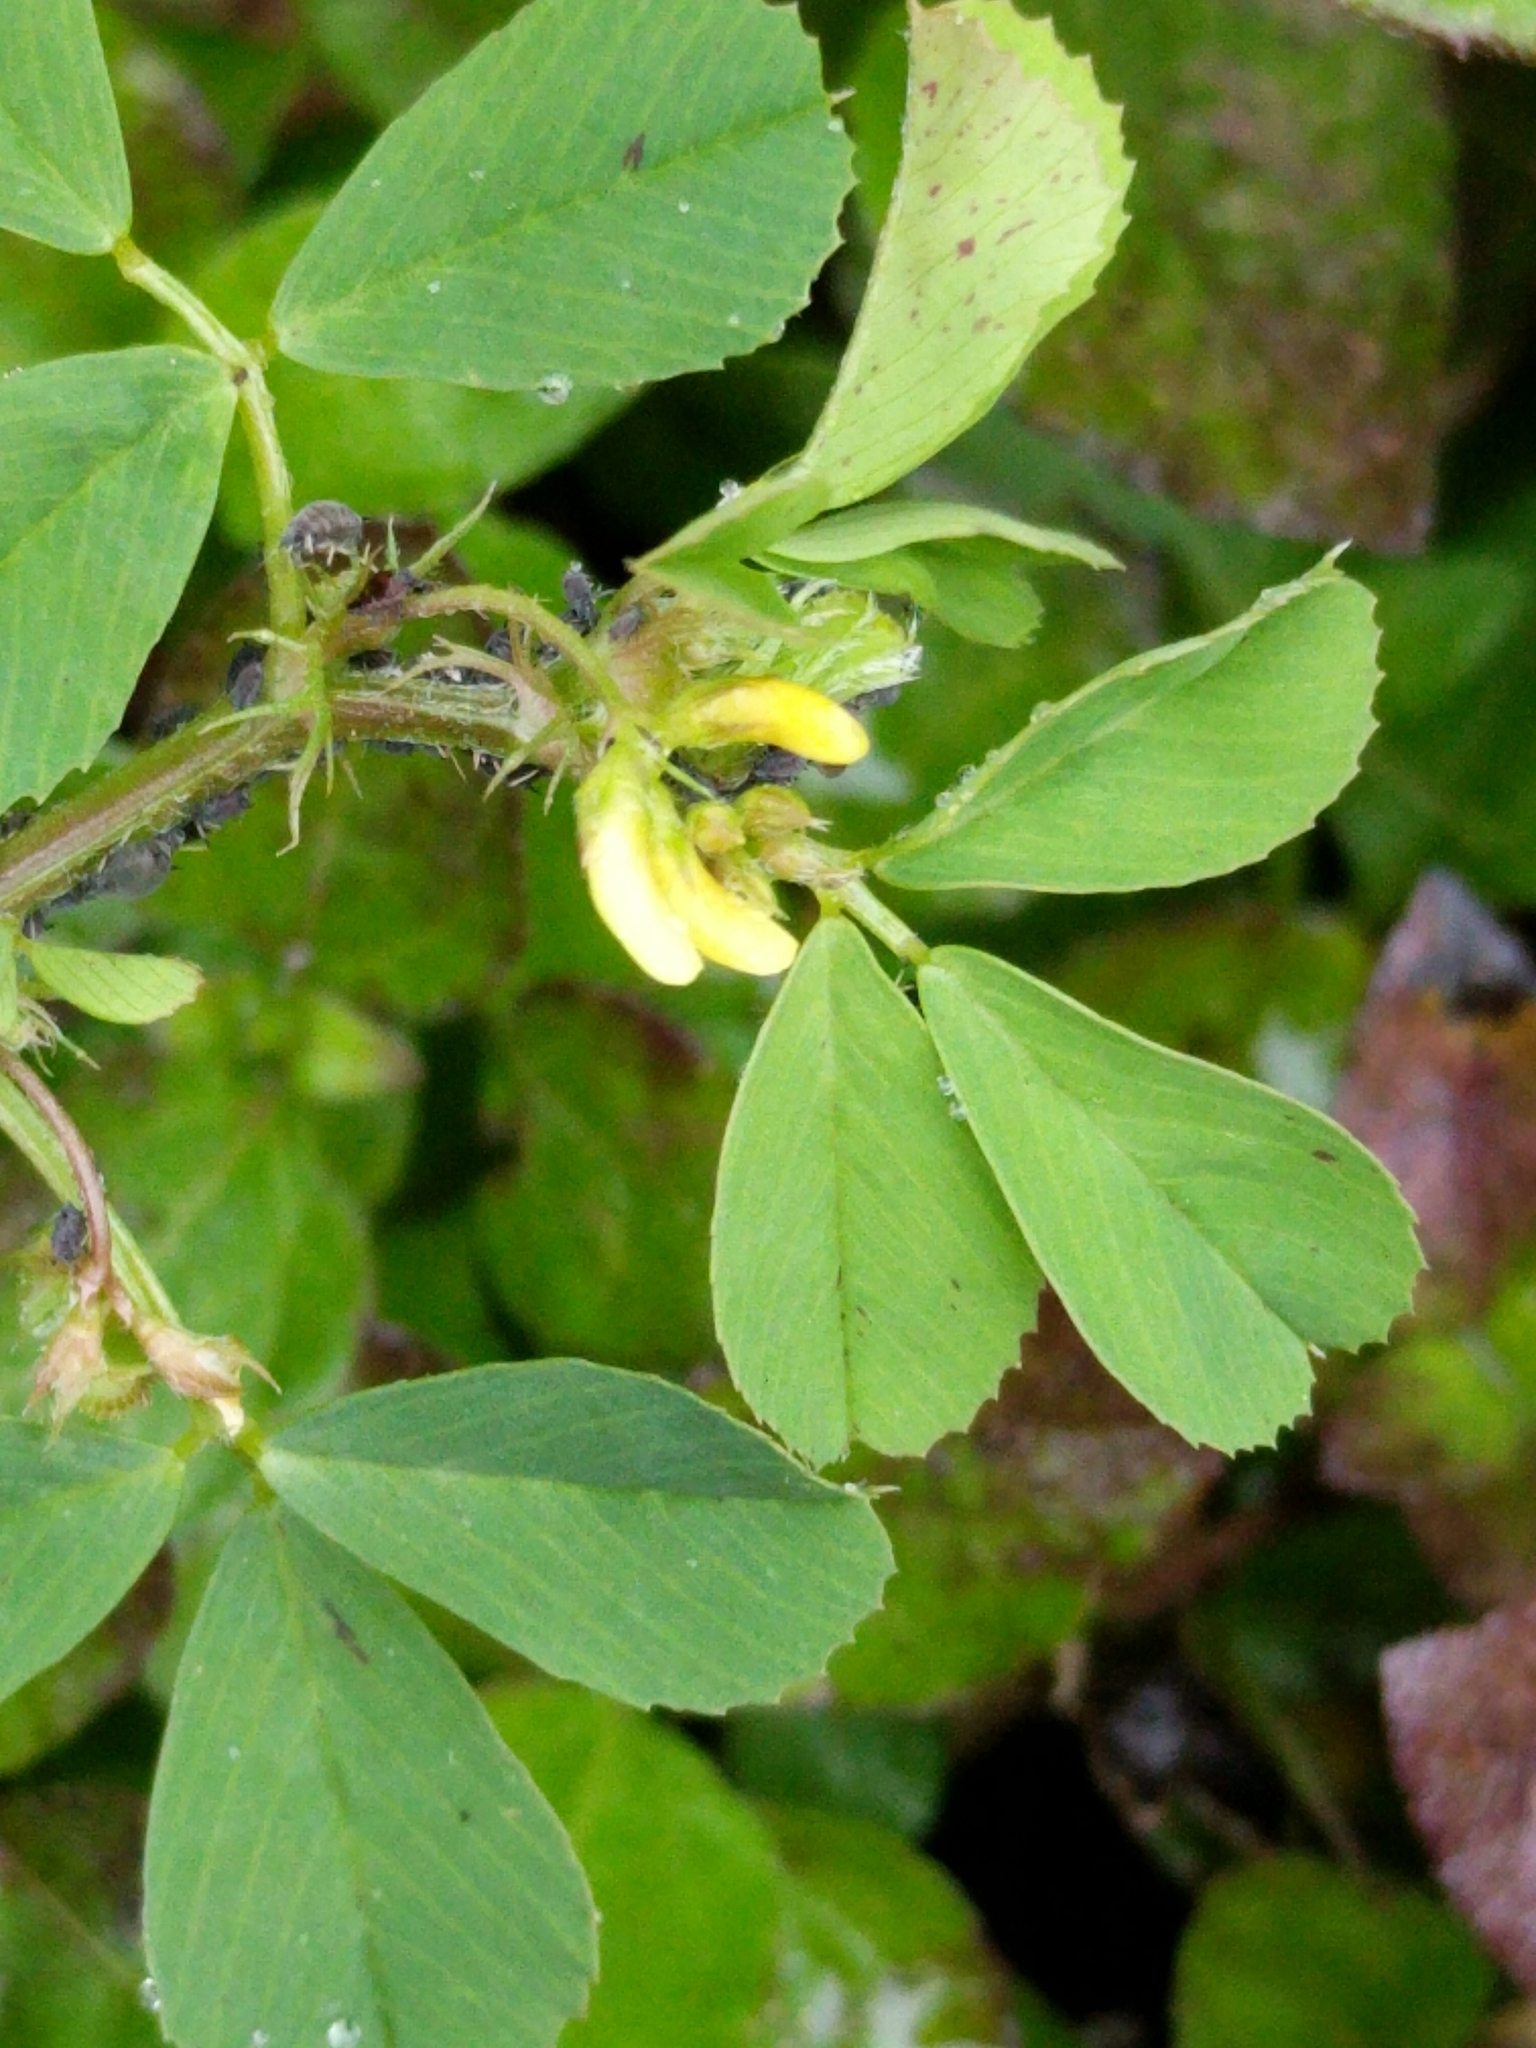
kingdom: Plantae
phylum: Tracheophyta
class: Magnoliopsida
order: Fabales
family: Fabaceae
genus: Medicago
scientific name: Medicago polymorpha
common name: Burclover
